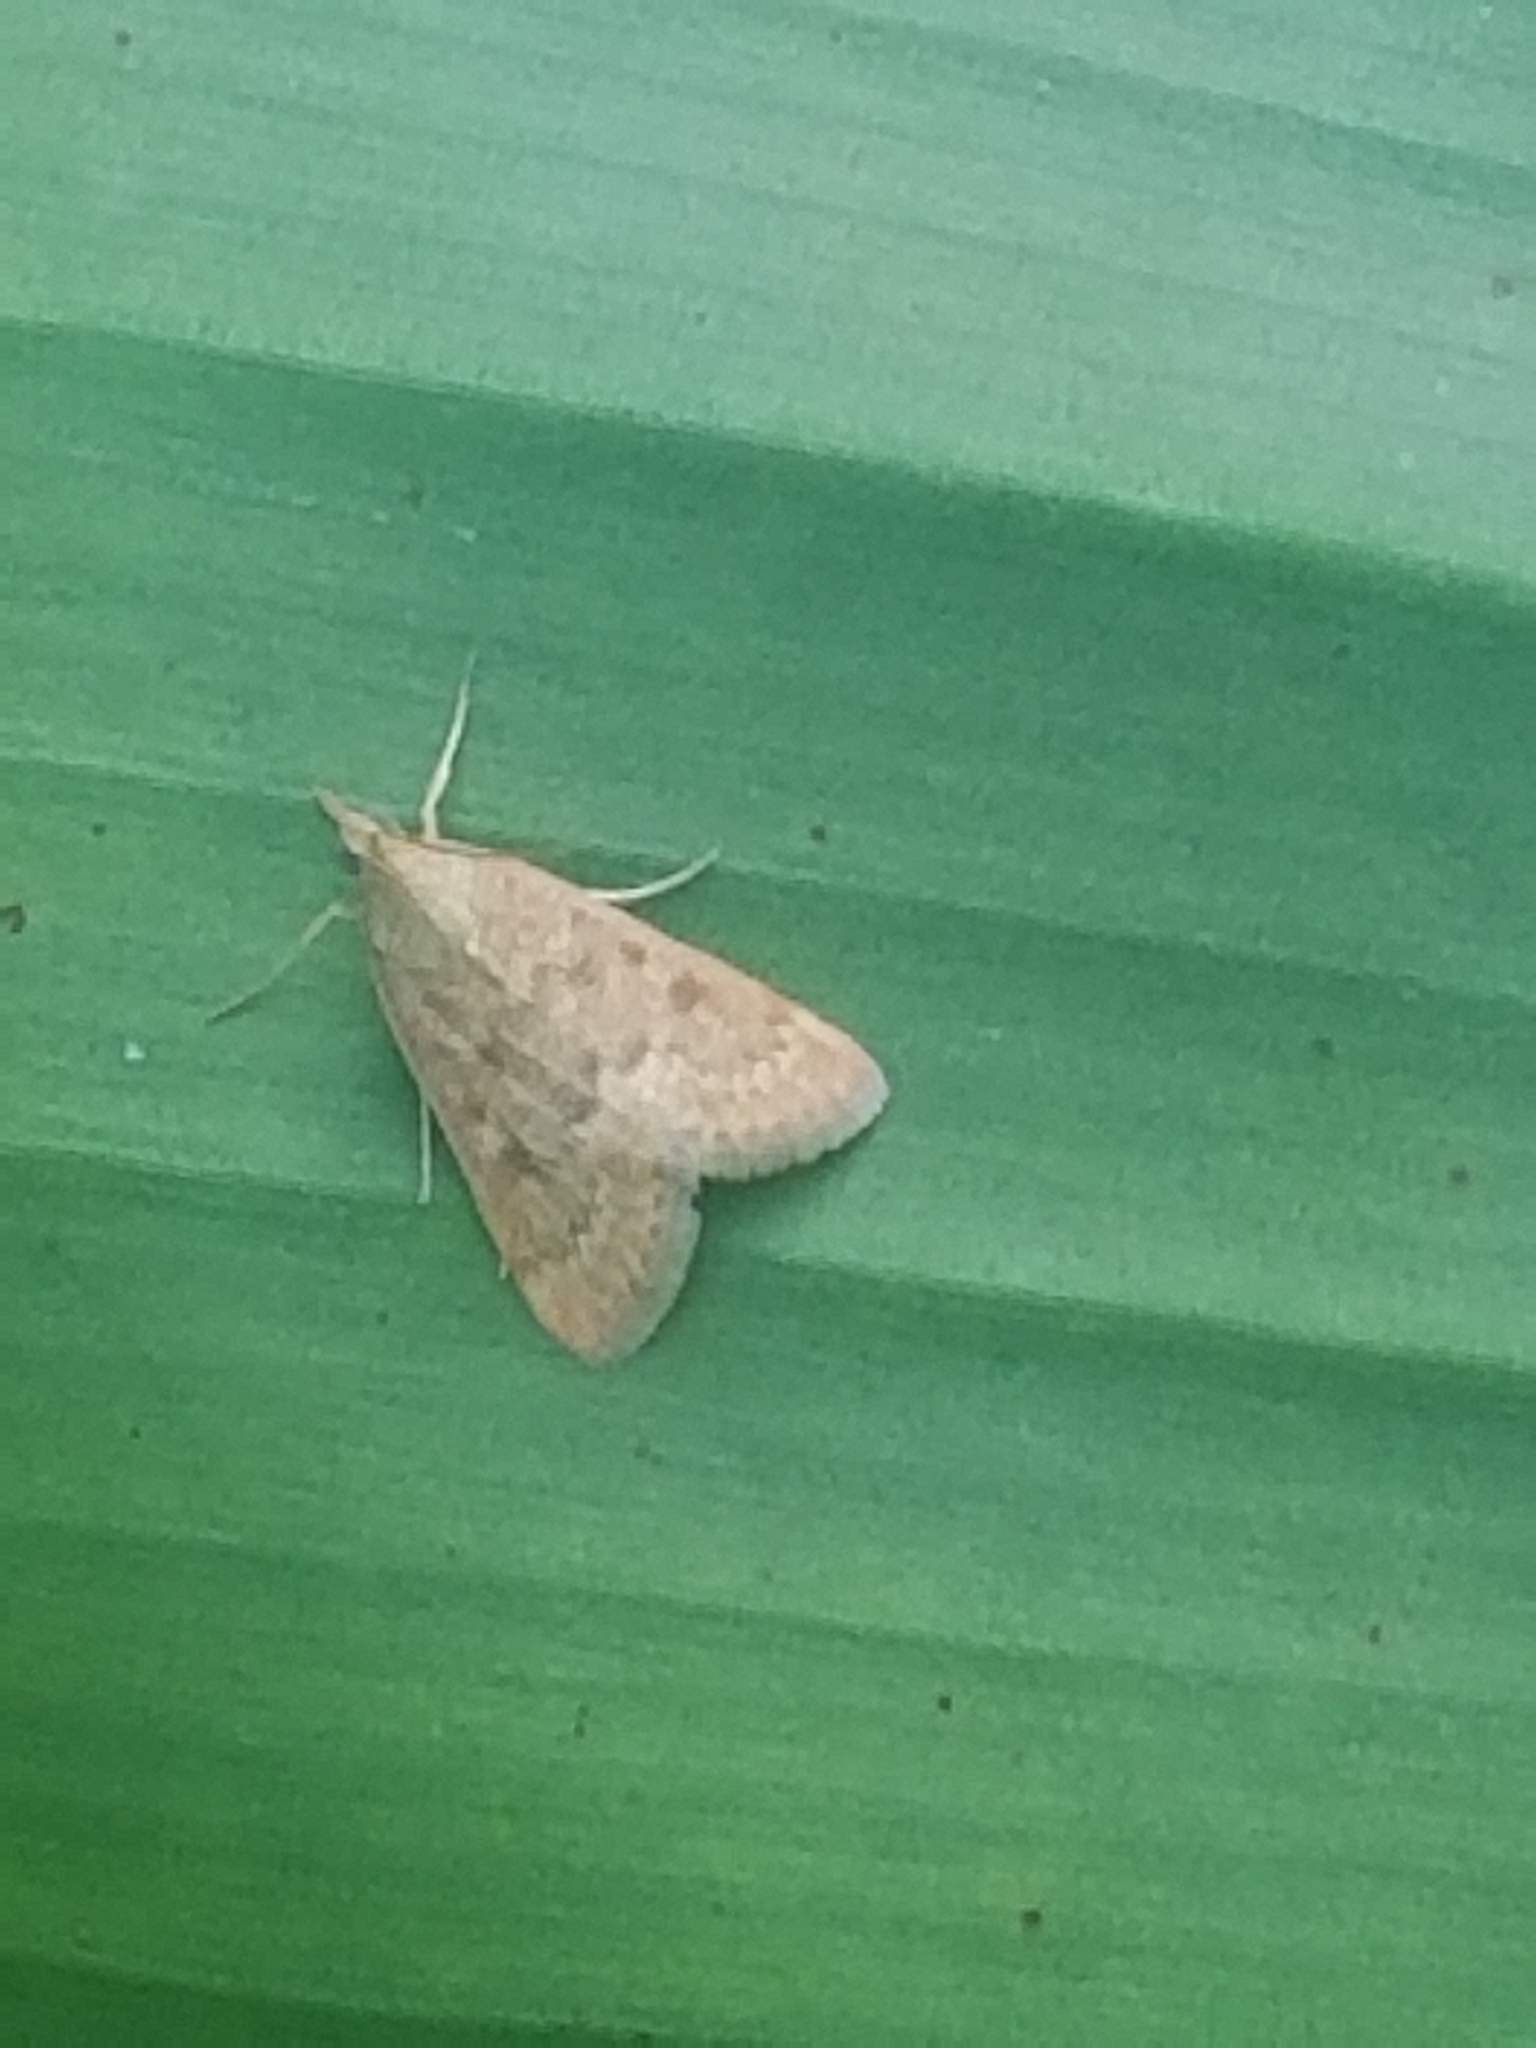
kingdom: Animalia
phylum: Arthropoda
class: Insecta
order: Lepidoptera
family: Crambidae
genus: Achyra
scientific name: Achyra rantalis
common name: Garden webworm
